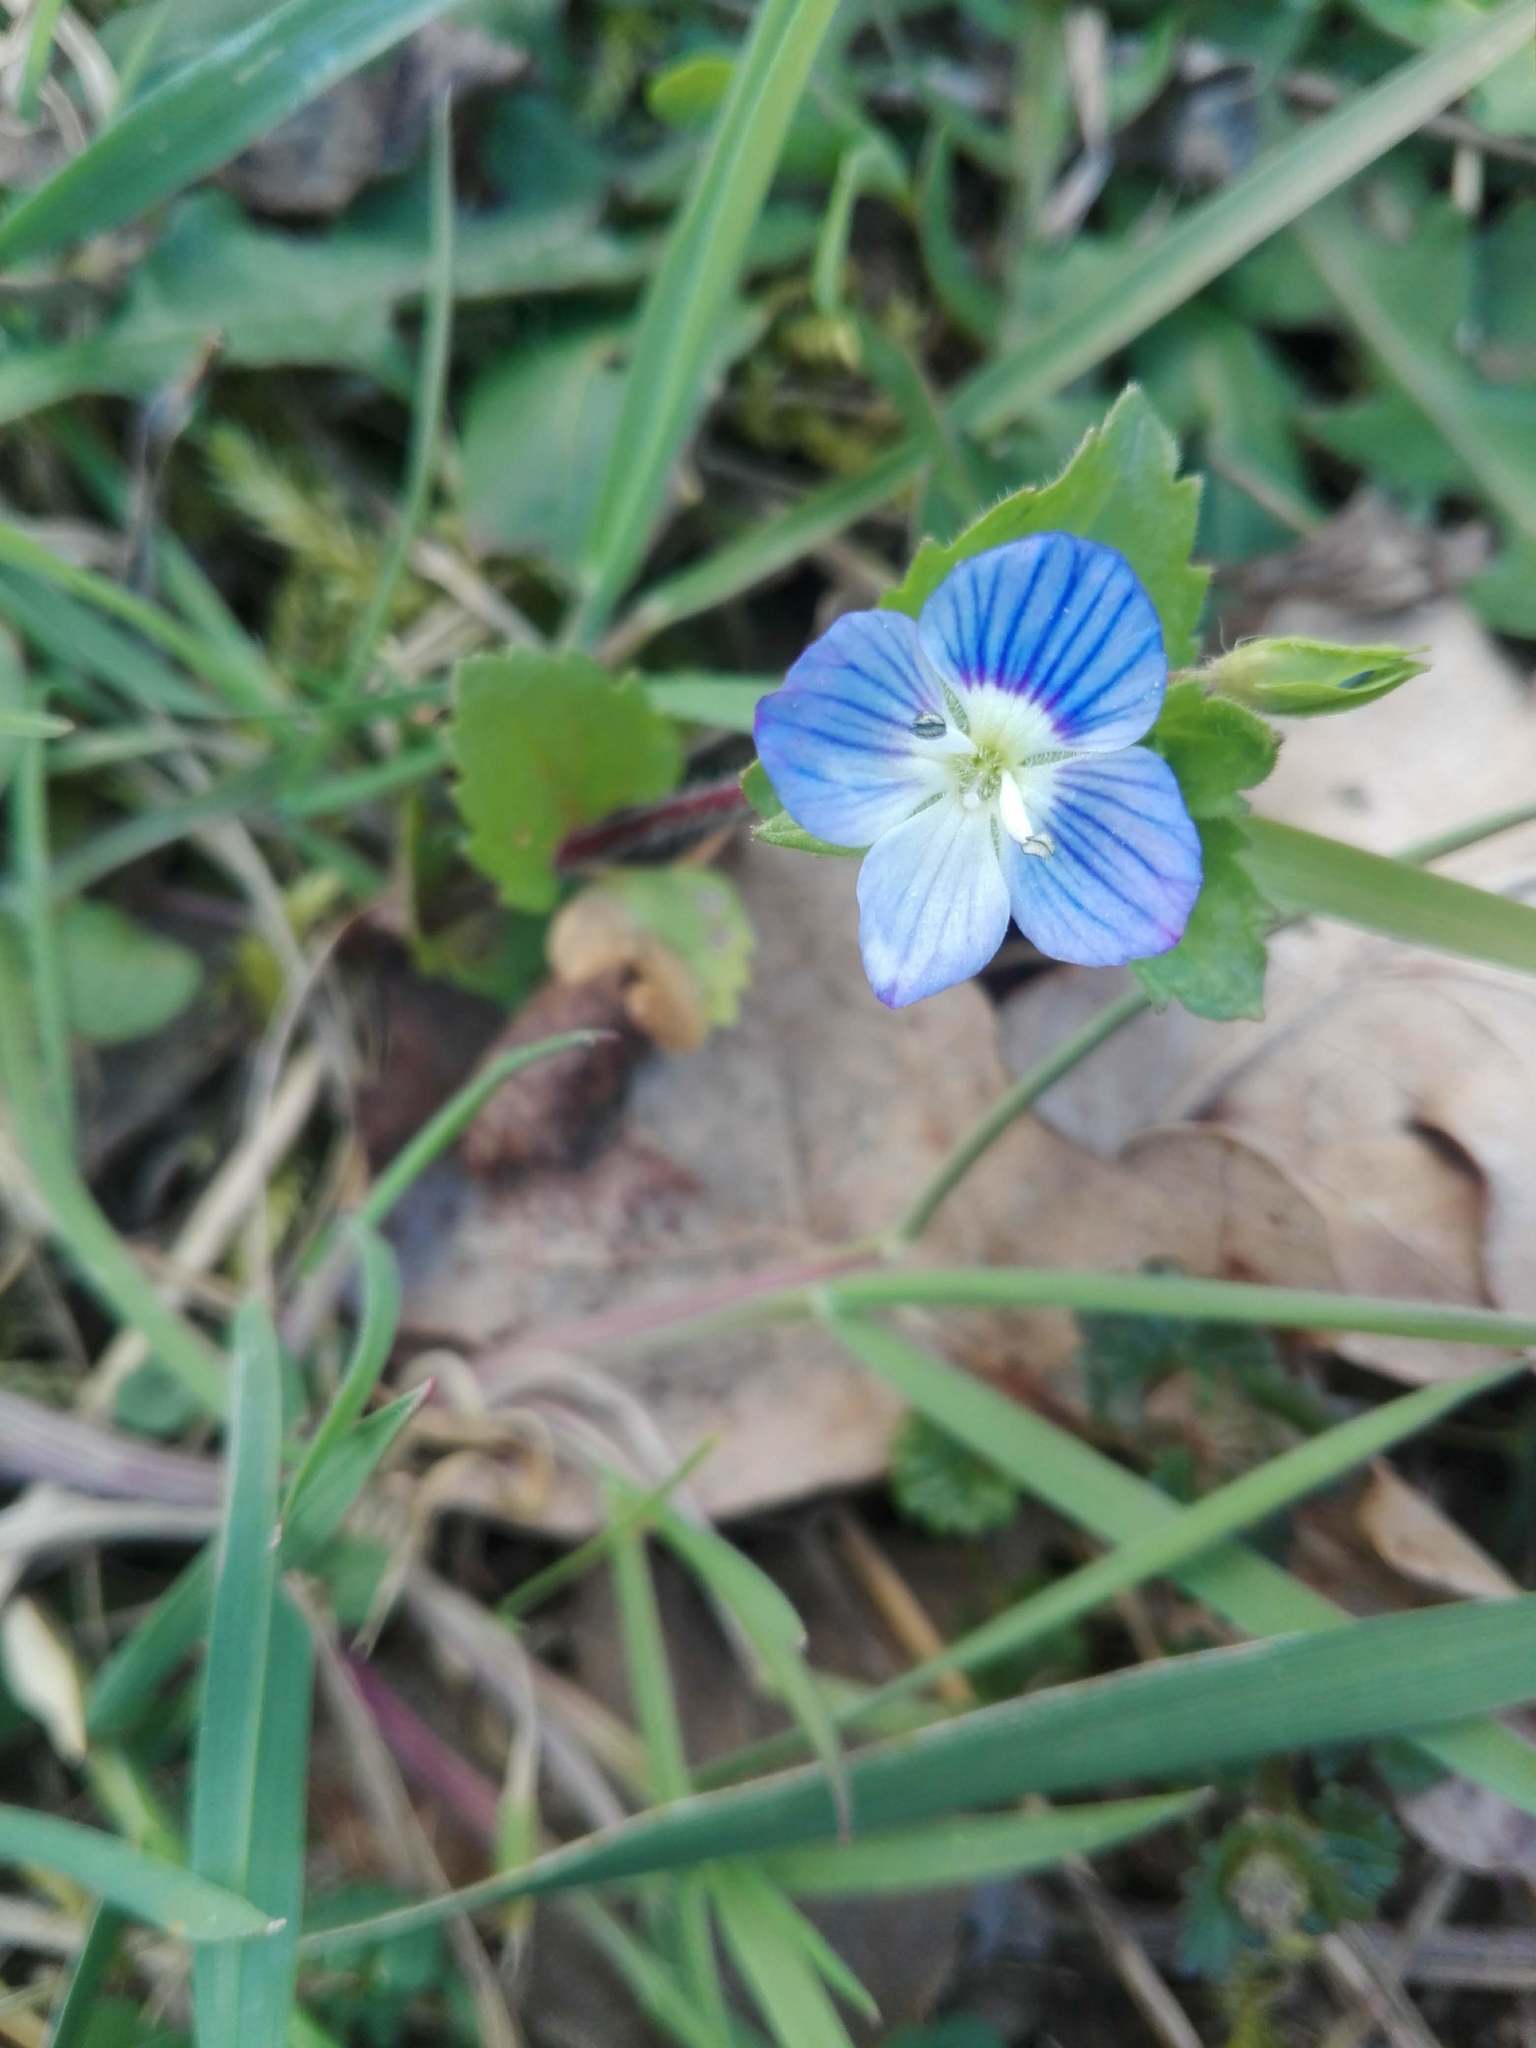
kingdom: Plantae
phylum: Tracheophyta
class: Magnoliopsida
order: Lamiales
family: Plantaginaceae
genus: Veronica
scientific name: Veronica persica
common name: Common field-speedwell
